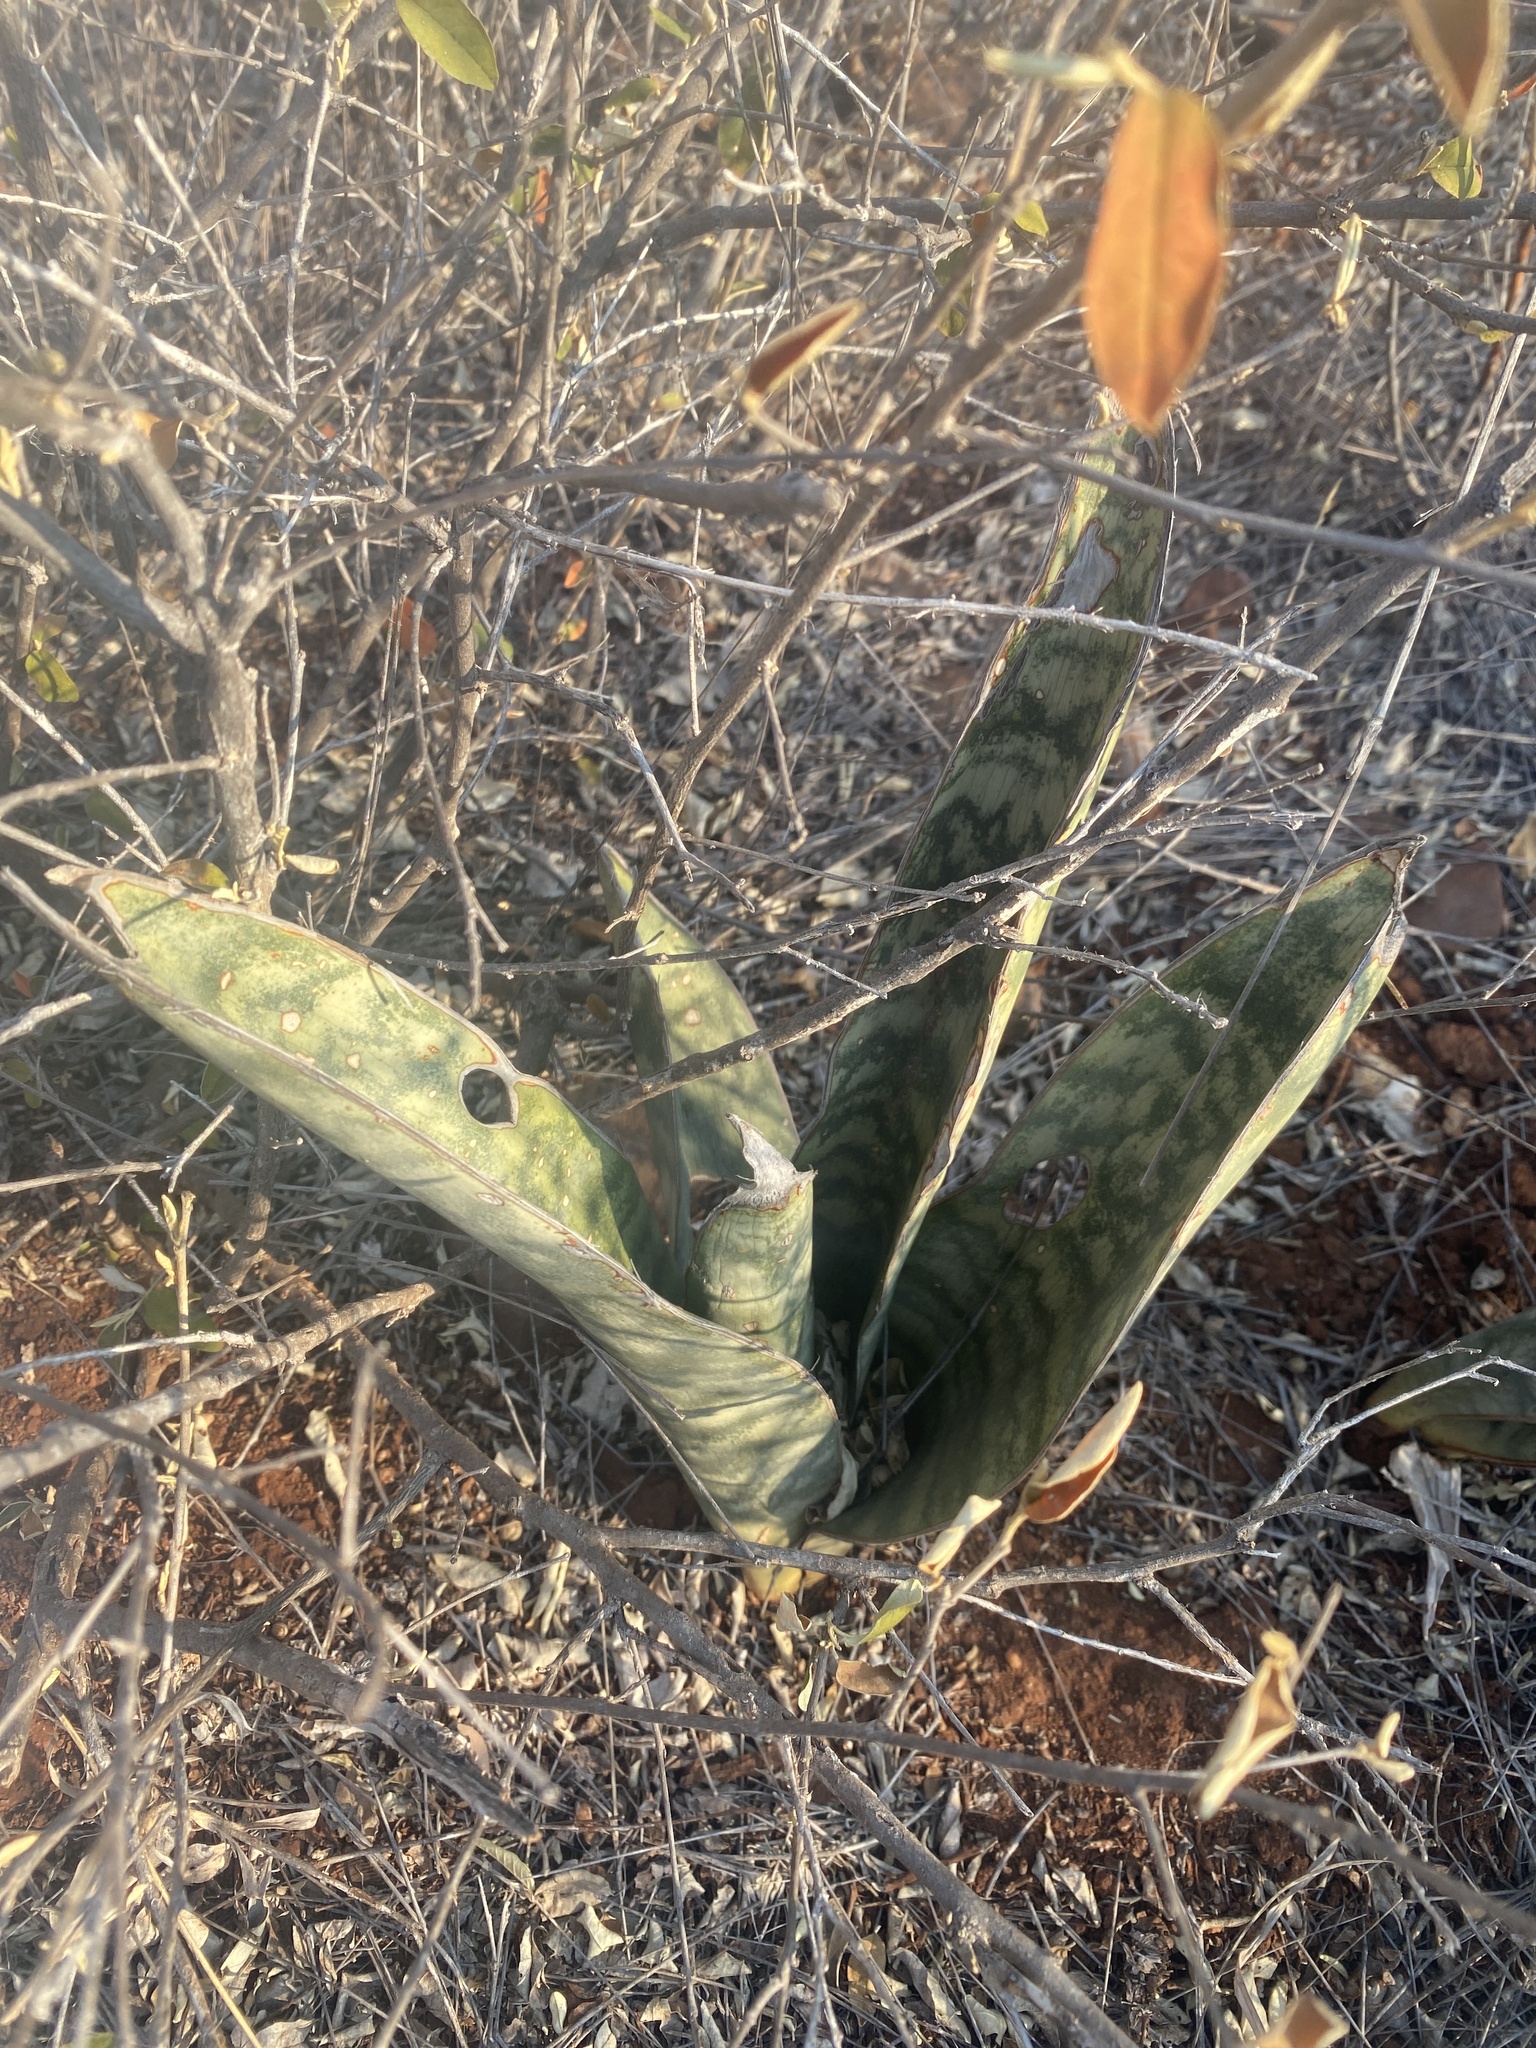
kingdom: Plantae
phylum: Tracheophyta
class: Liliopsida
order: Asparagales
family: Asparagaceae
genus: Dracaena
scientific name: Dracaena hyacinthoides
